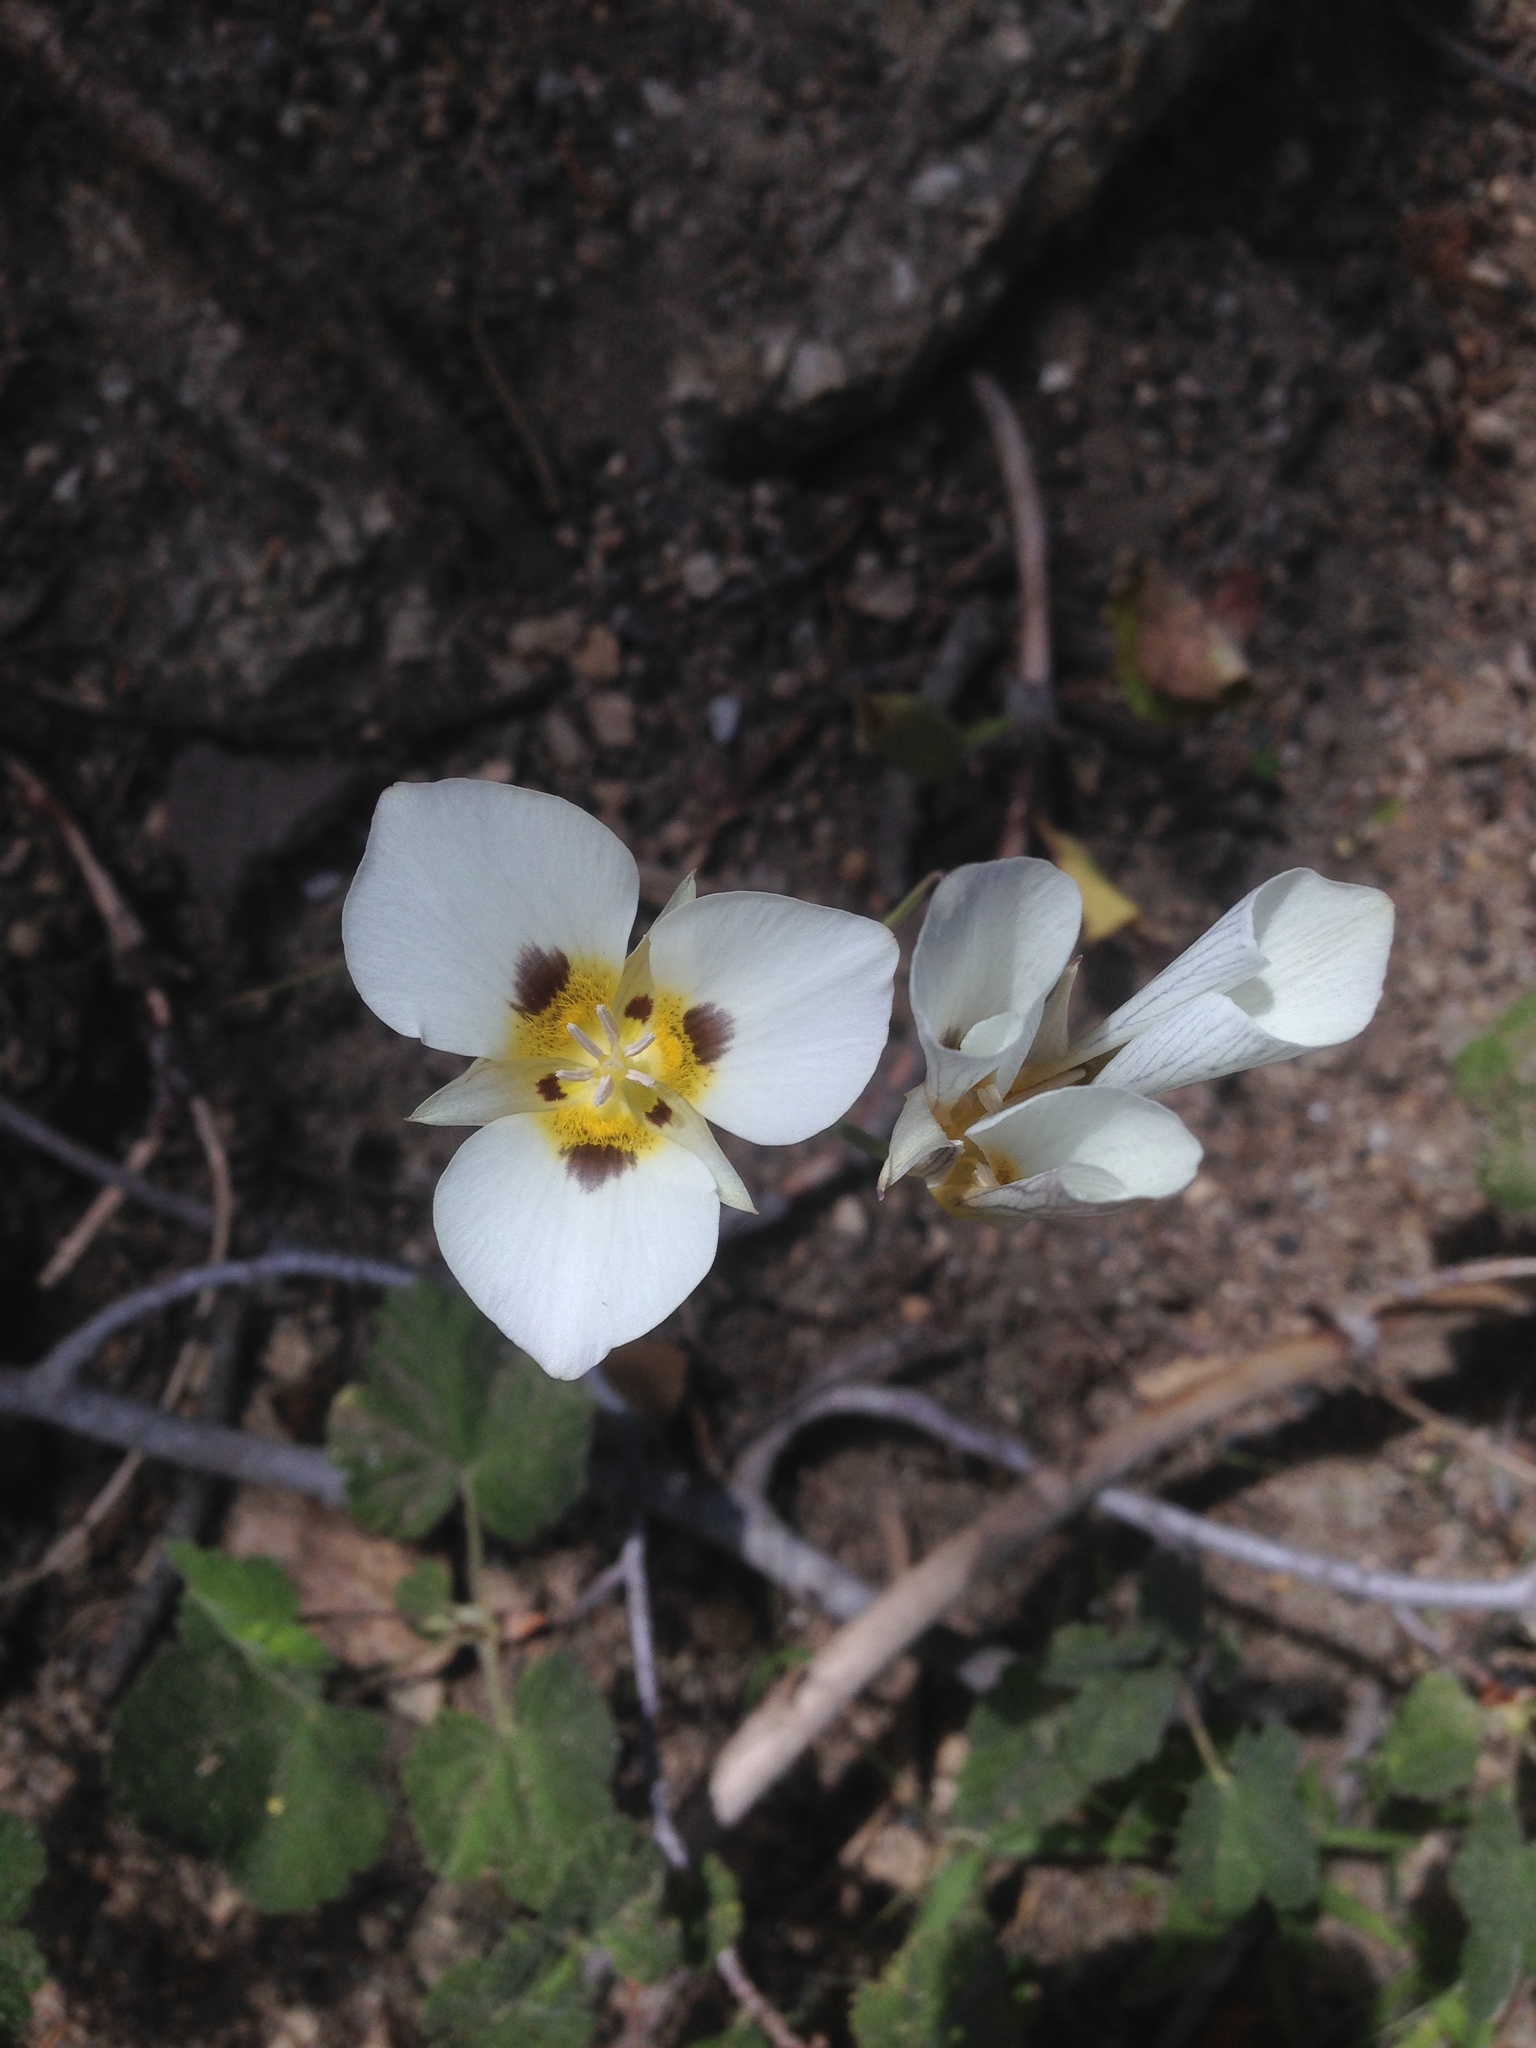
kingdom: Plantae
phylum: Tracheophyta
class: Liliopsida
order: Liliales
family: Liliaceae
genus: Calochortus
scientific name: Calochortus leichtlinii
